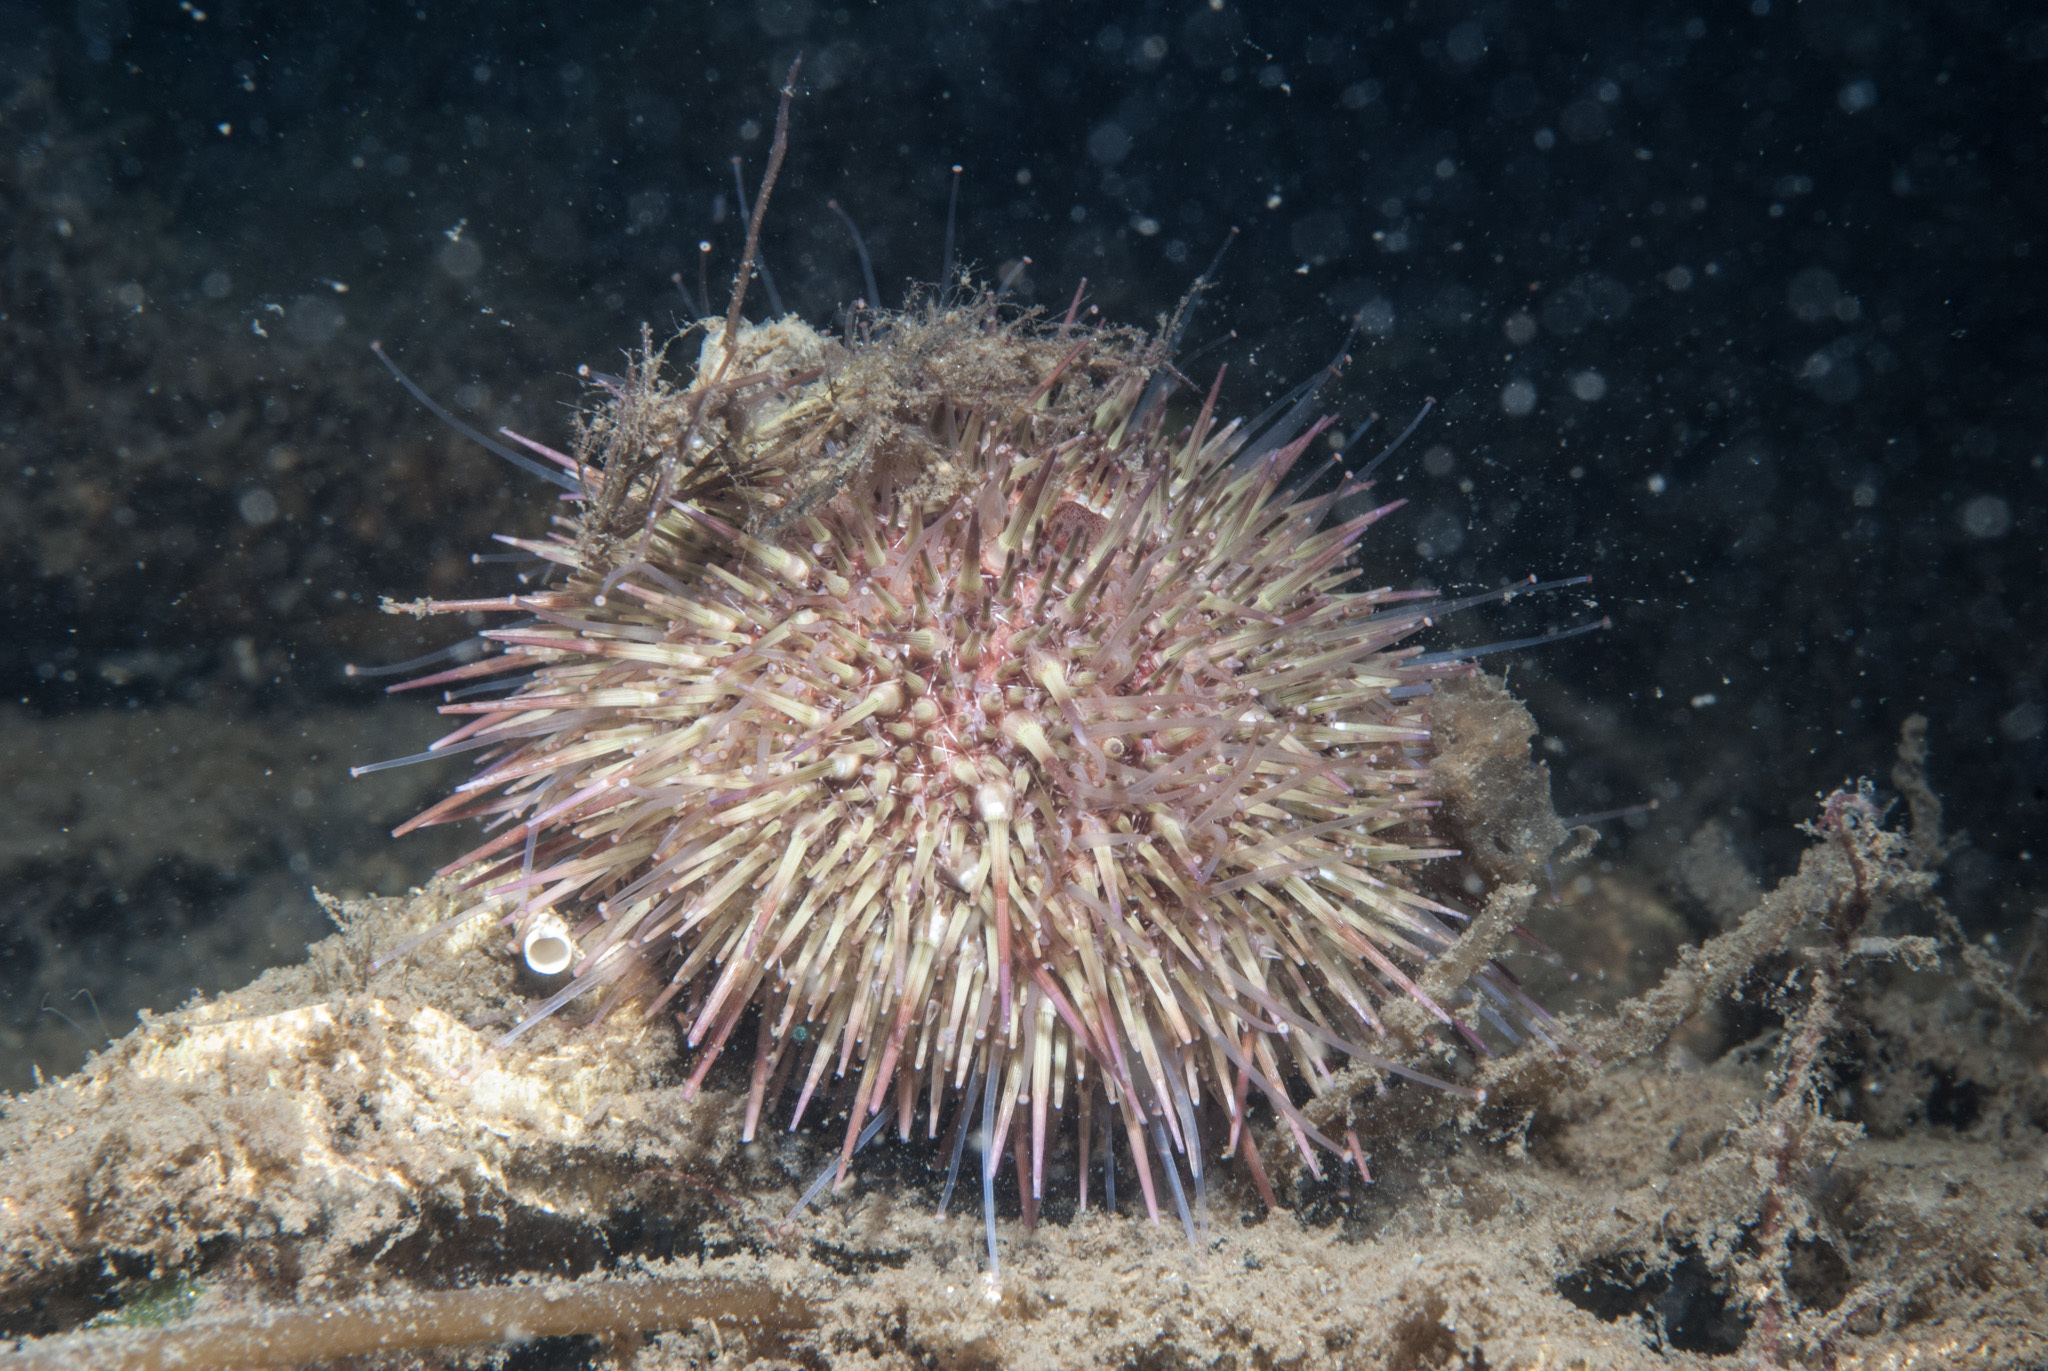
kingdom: Animalia
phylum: Echinodermata
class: Echinoidea
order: Camarodonta
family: Parechinidae
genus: Psammechinus
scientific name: Psammechinus miliaris
